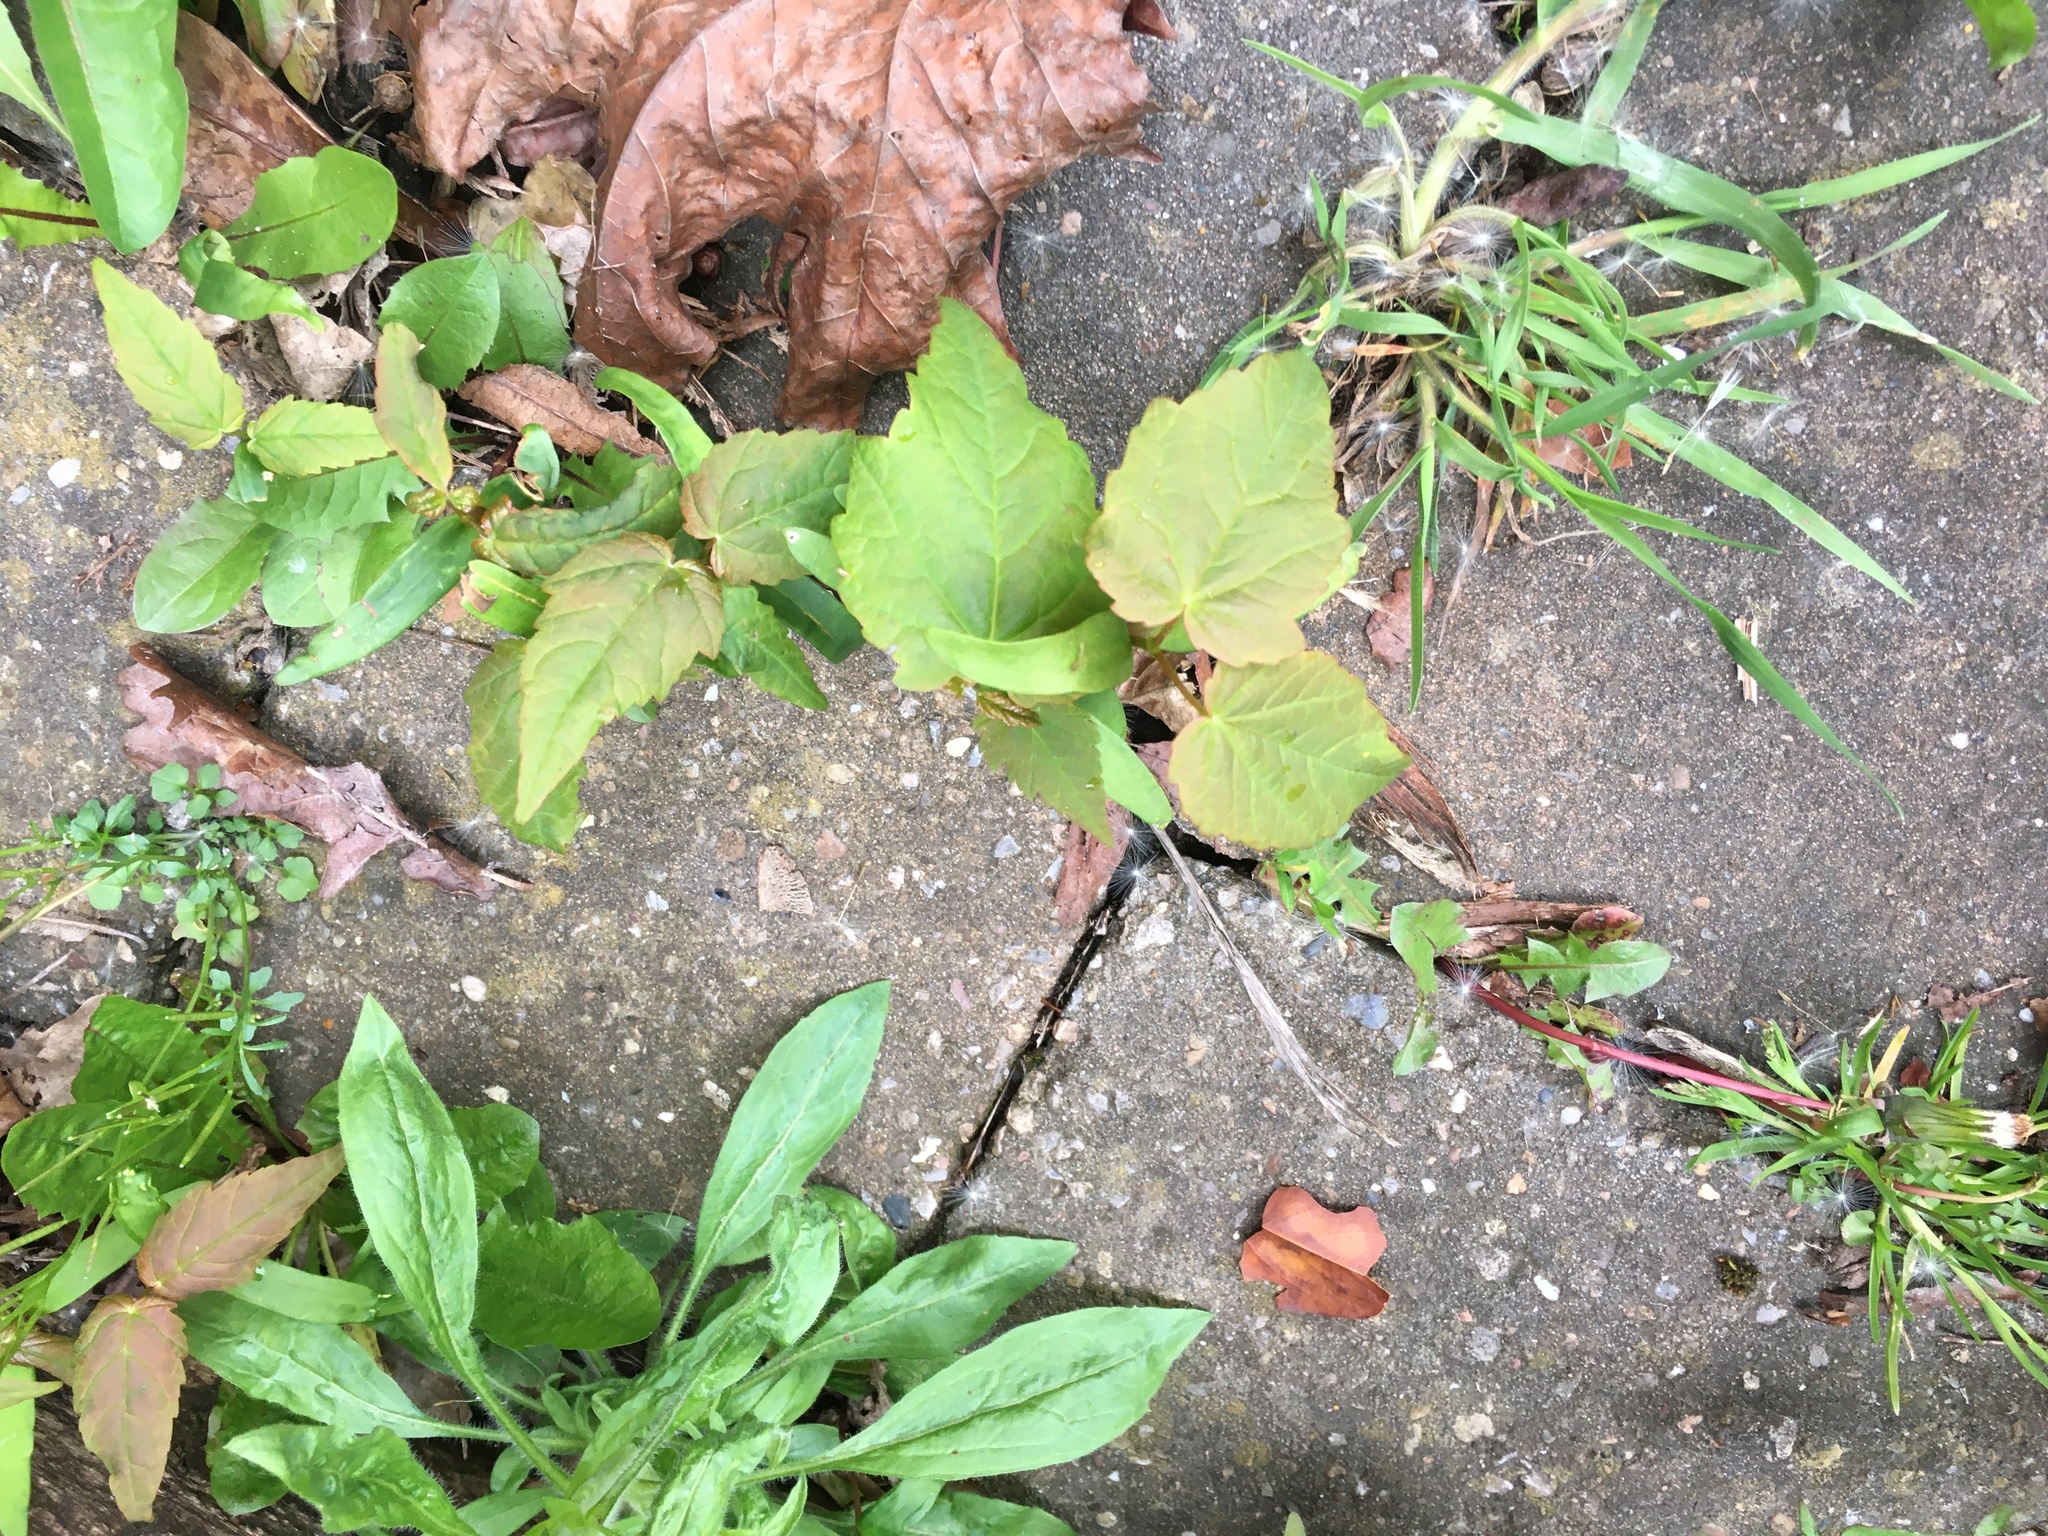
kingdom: Plantae
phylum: Tracheophyta
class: Magnoliopsida
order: Sapindales
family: Sapindaceae
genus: Acer
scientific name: Acer pseudoplatanus
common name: Sycamore
